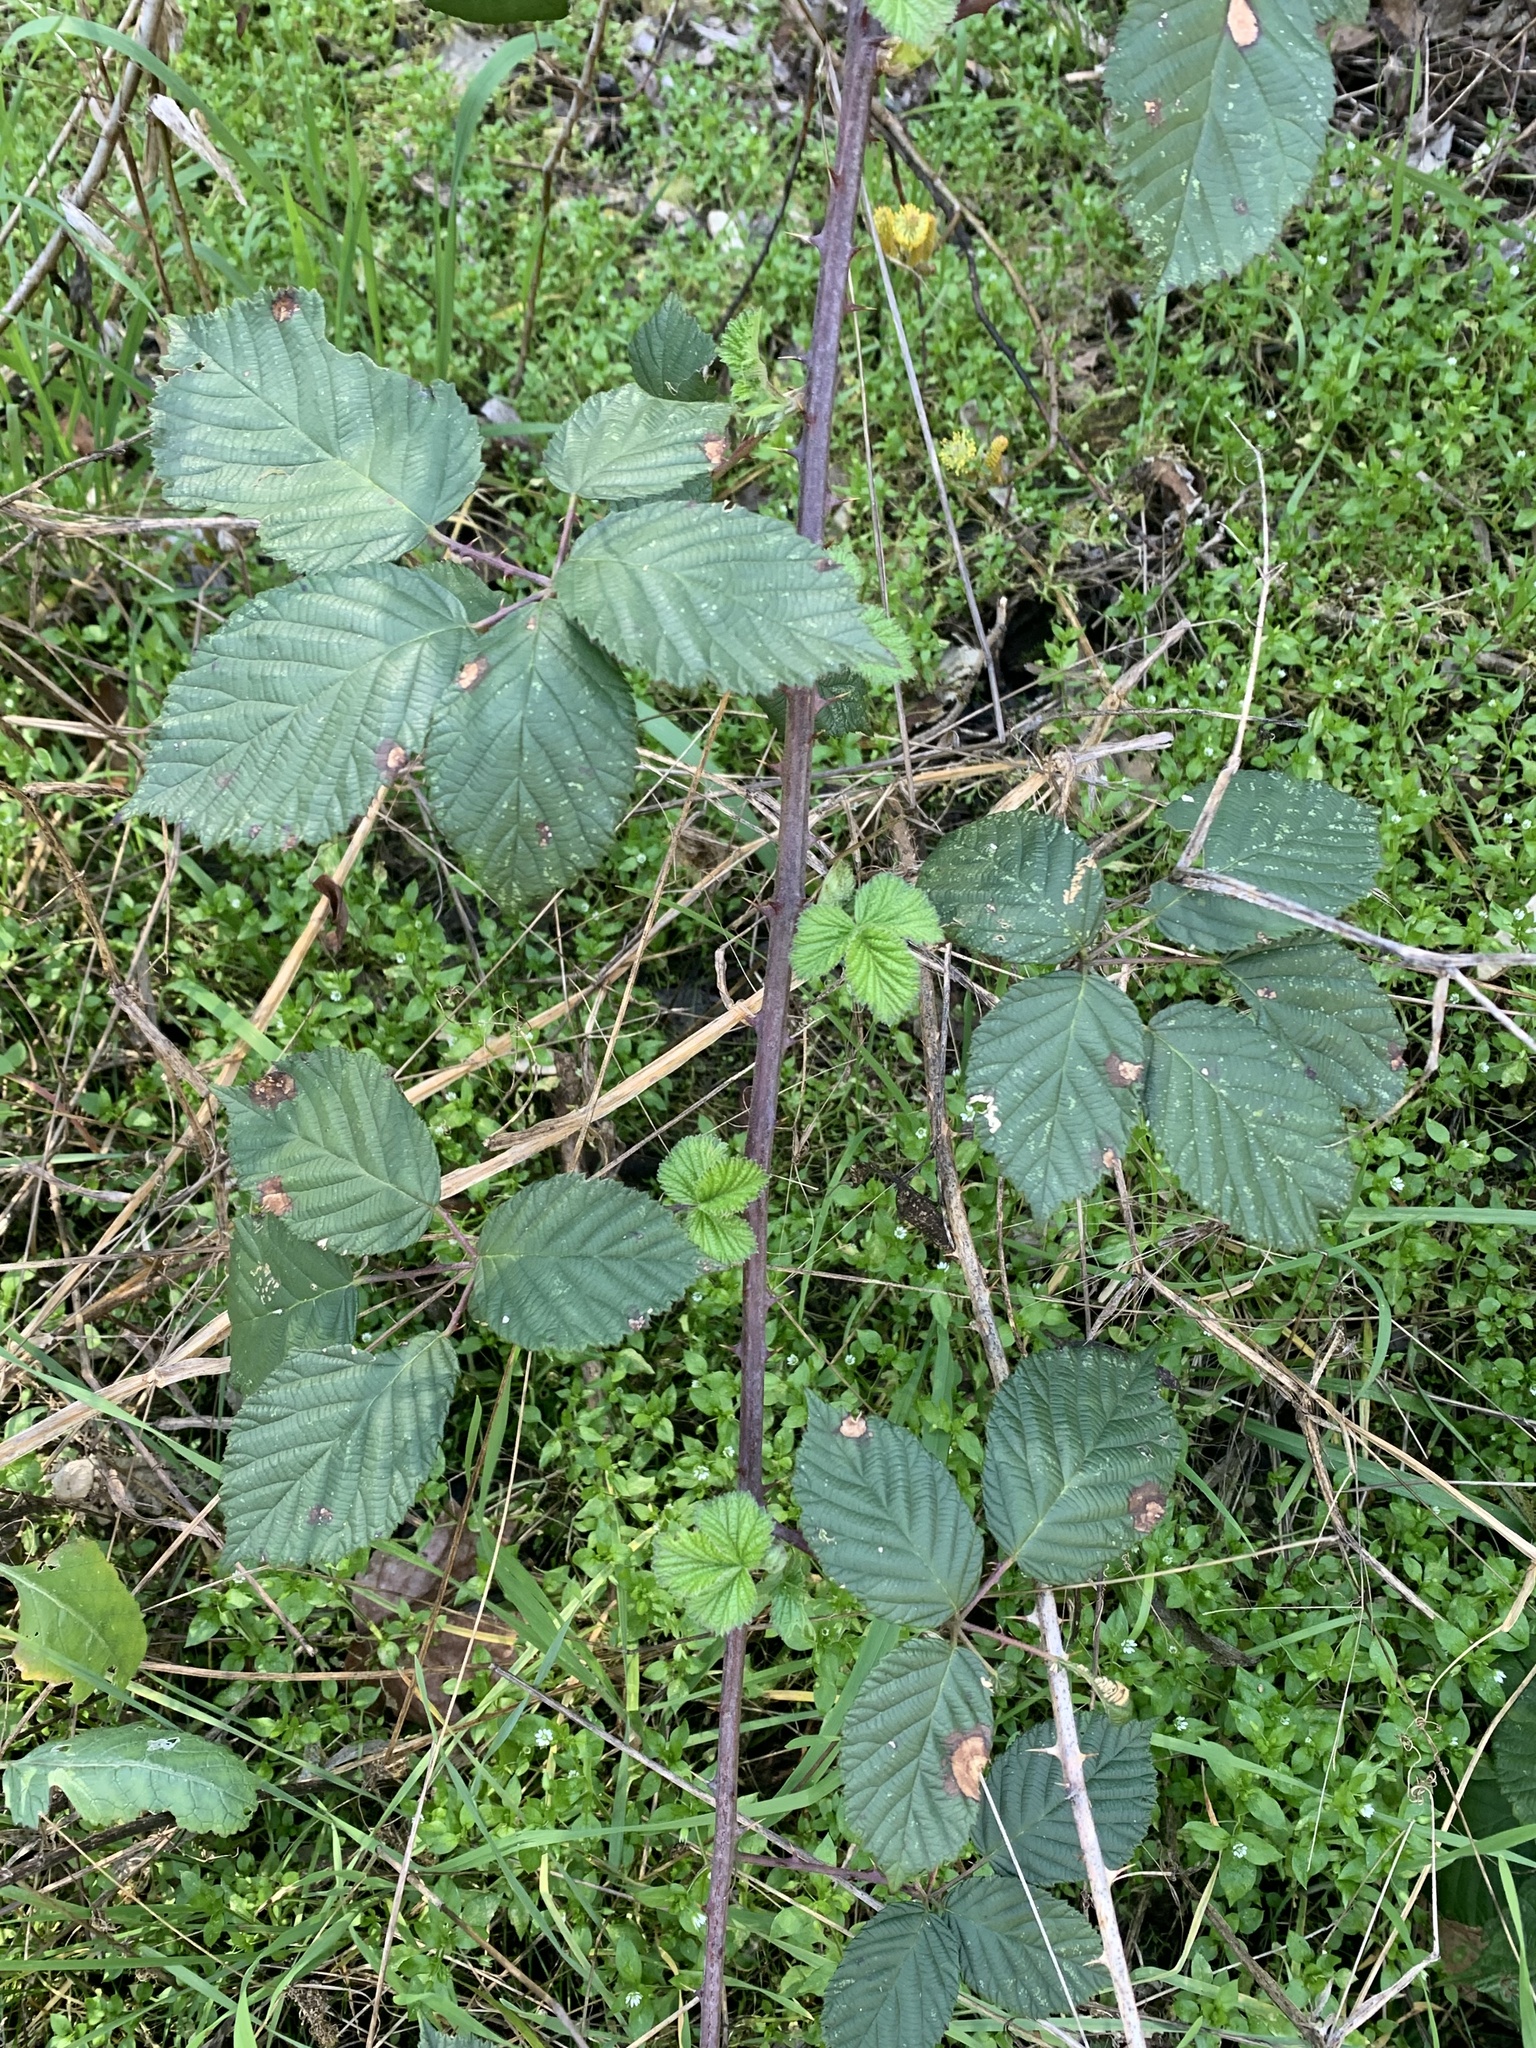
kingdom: Plantae
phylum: Tracheophyta
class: Magnoliopsida
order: Rosales
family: Rosaceae
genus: Rubus
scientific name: Rubus armeniacus
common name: Himalayan blackberry
